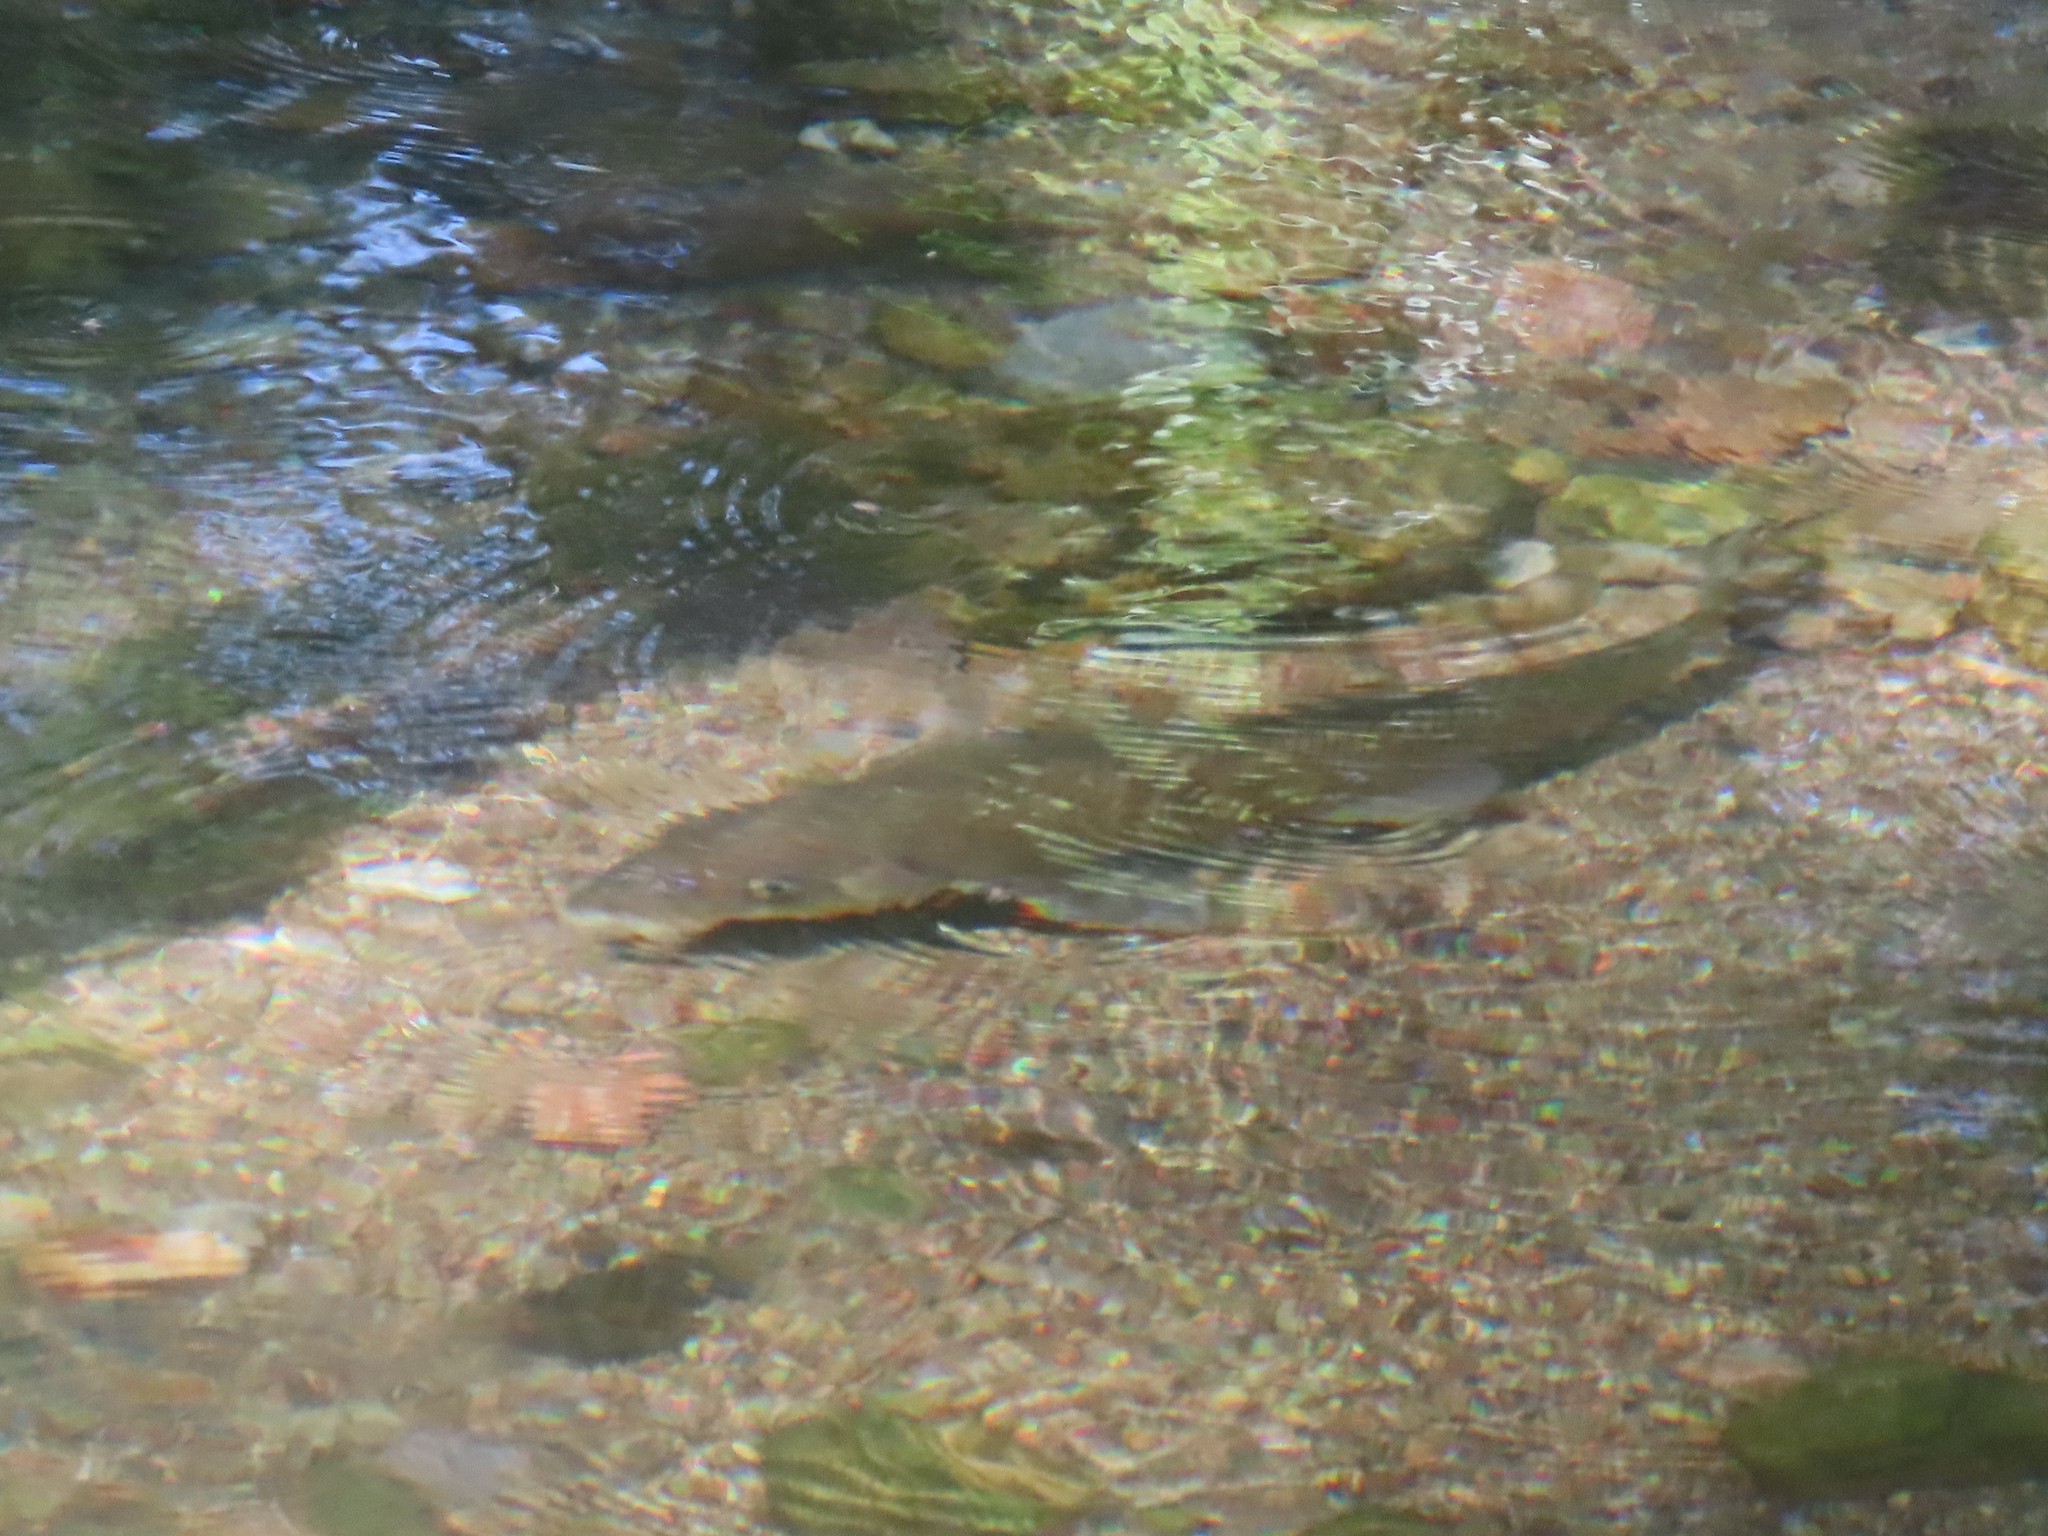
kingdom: Animalia
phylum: Chordata
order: Cypriniformes
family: Catostomidae
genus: Catostomus
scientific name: Catostomus insignis
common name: Sonora sucker
